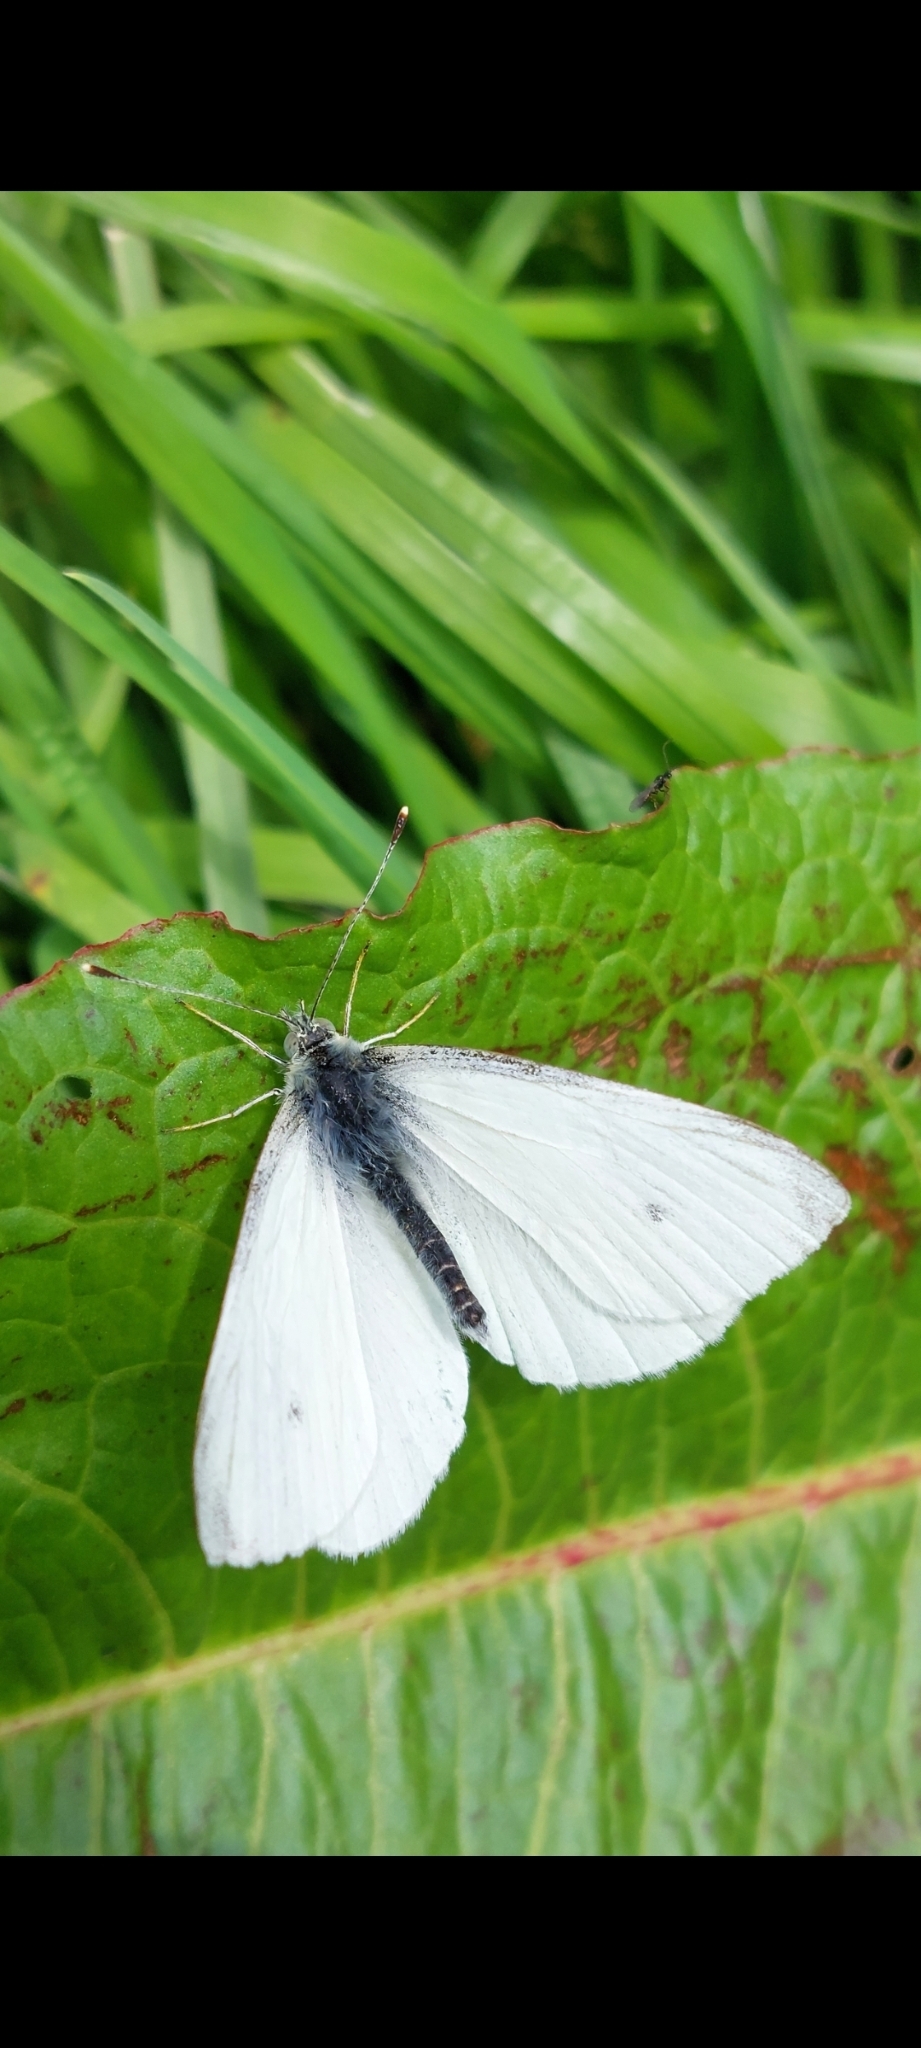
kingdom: Animalia
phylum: Arthropoda
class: Insecta
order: Lepidoptera
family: Pieridae
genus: Pieris
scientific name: Pieris rapae
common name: Small white
